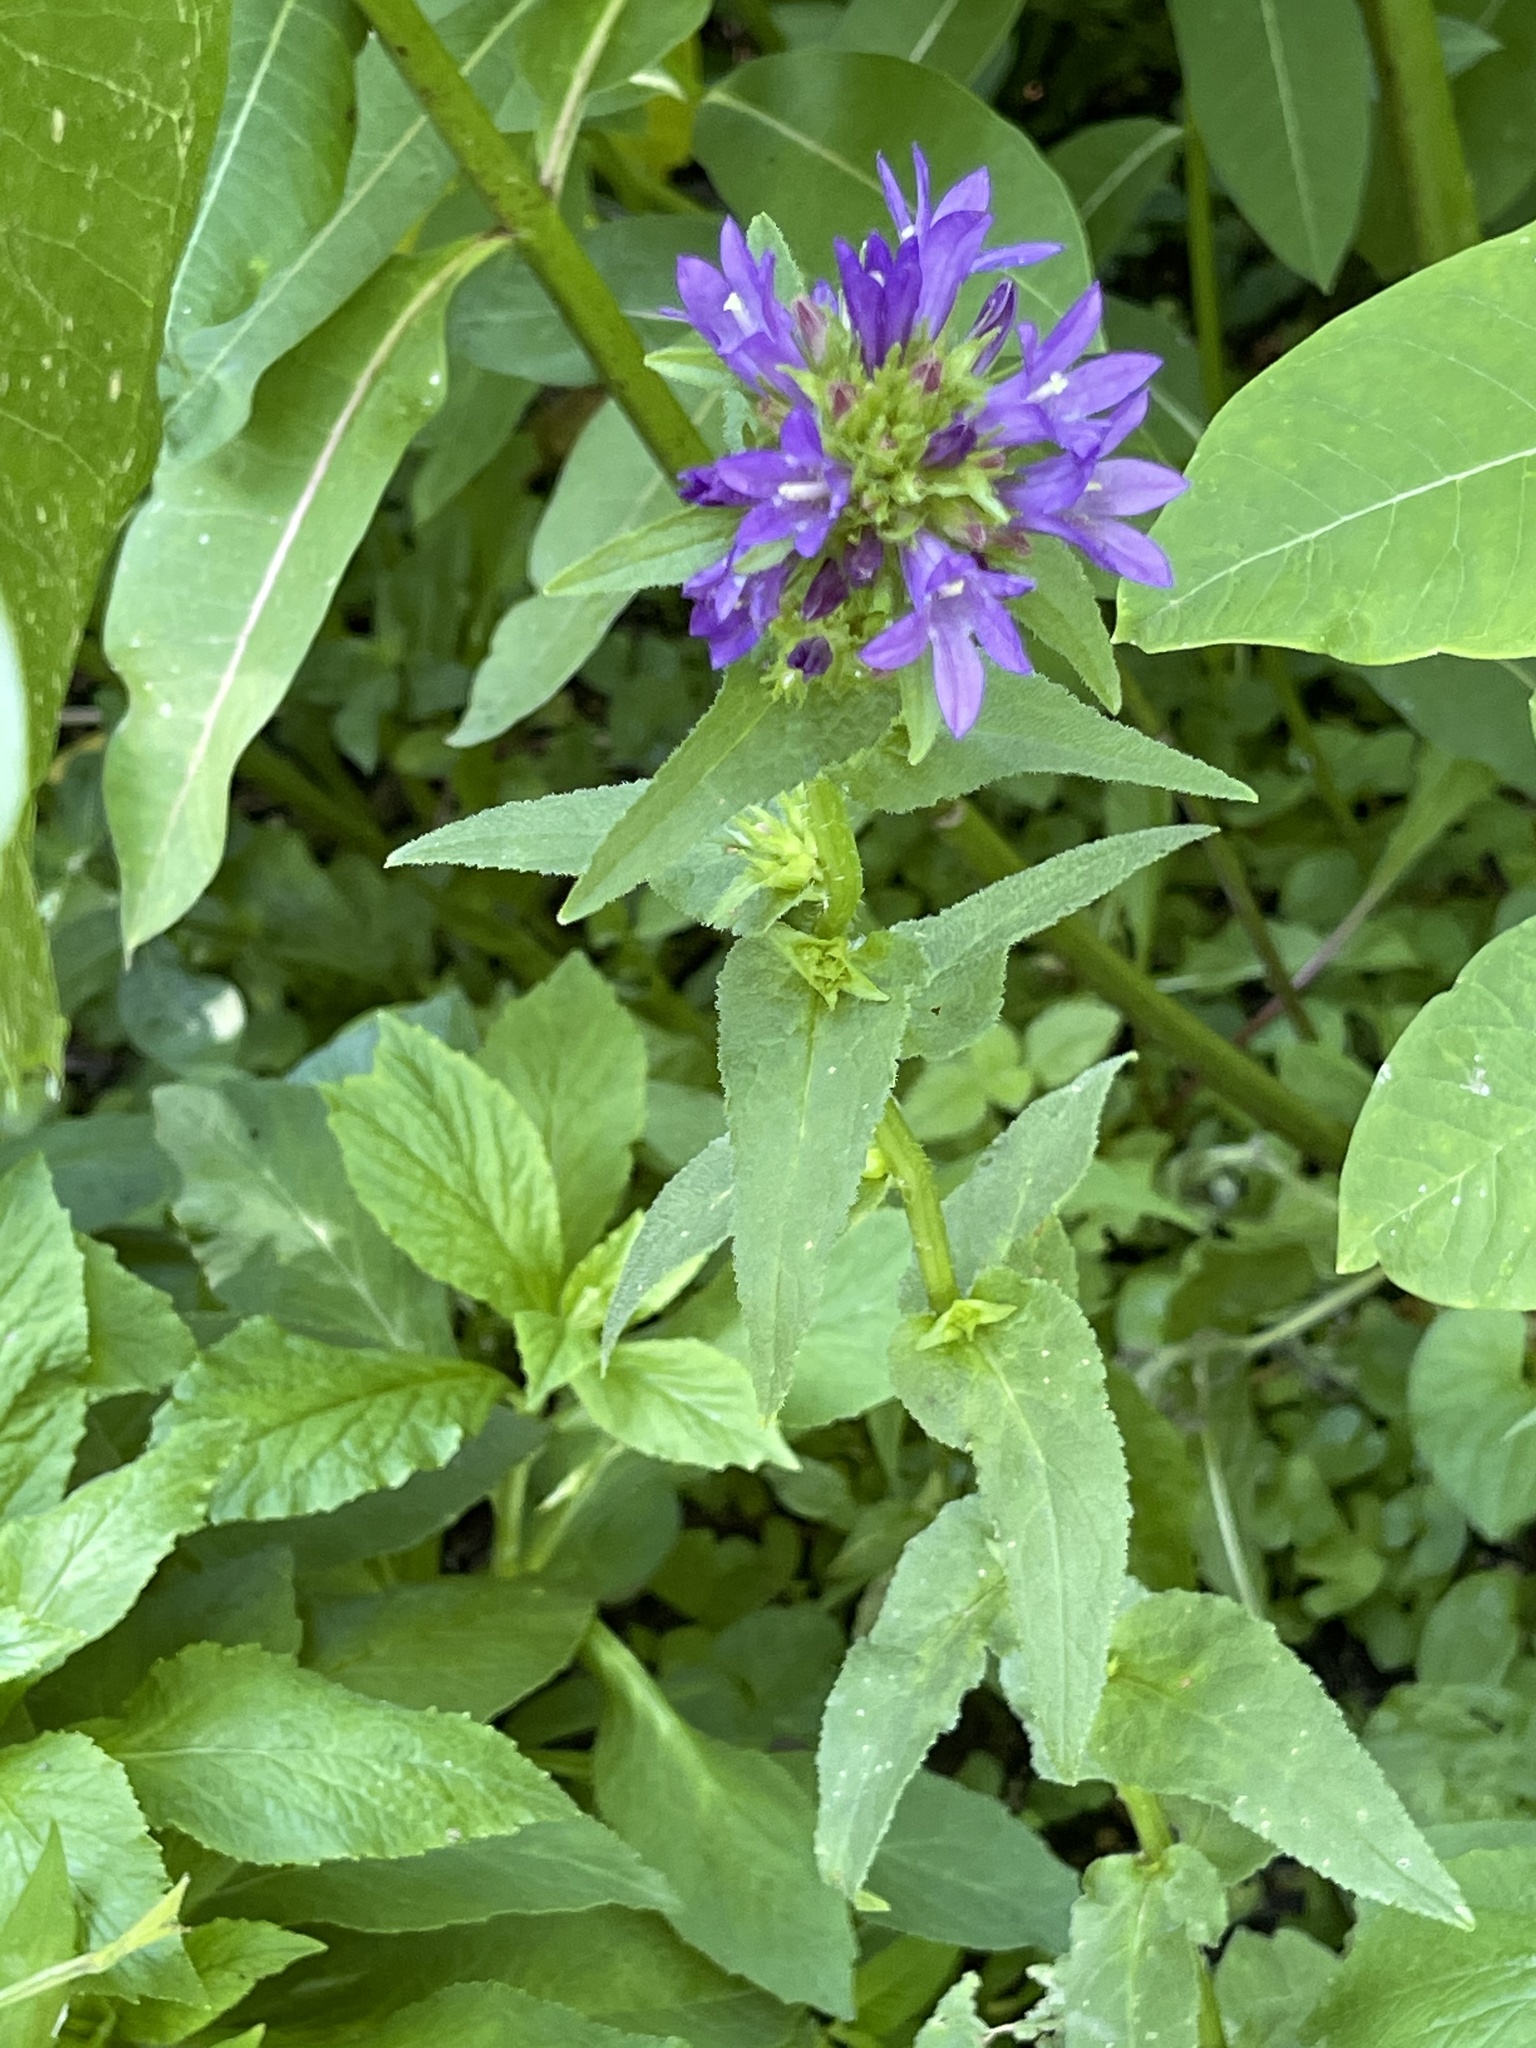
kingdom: Plantae
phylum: Tracheophyta
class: Magnoliopsida
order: Asterales
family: Campanulaceae
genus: Campanula
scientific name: Campanula glomerata
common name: Clustered bellflower
